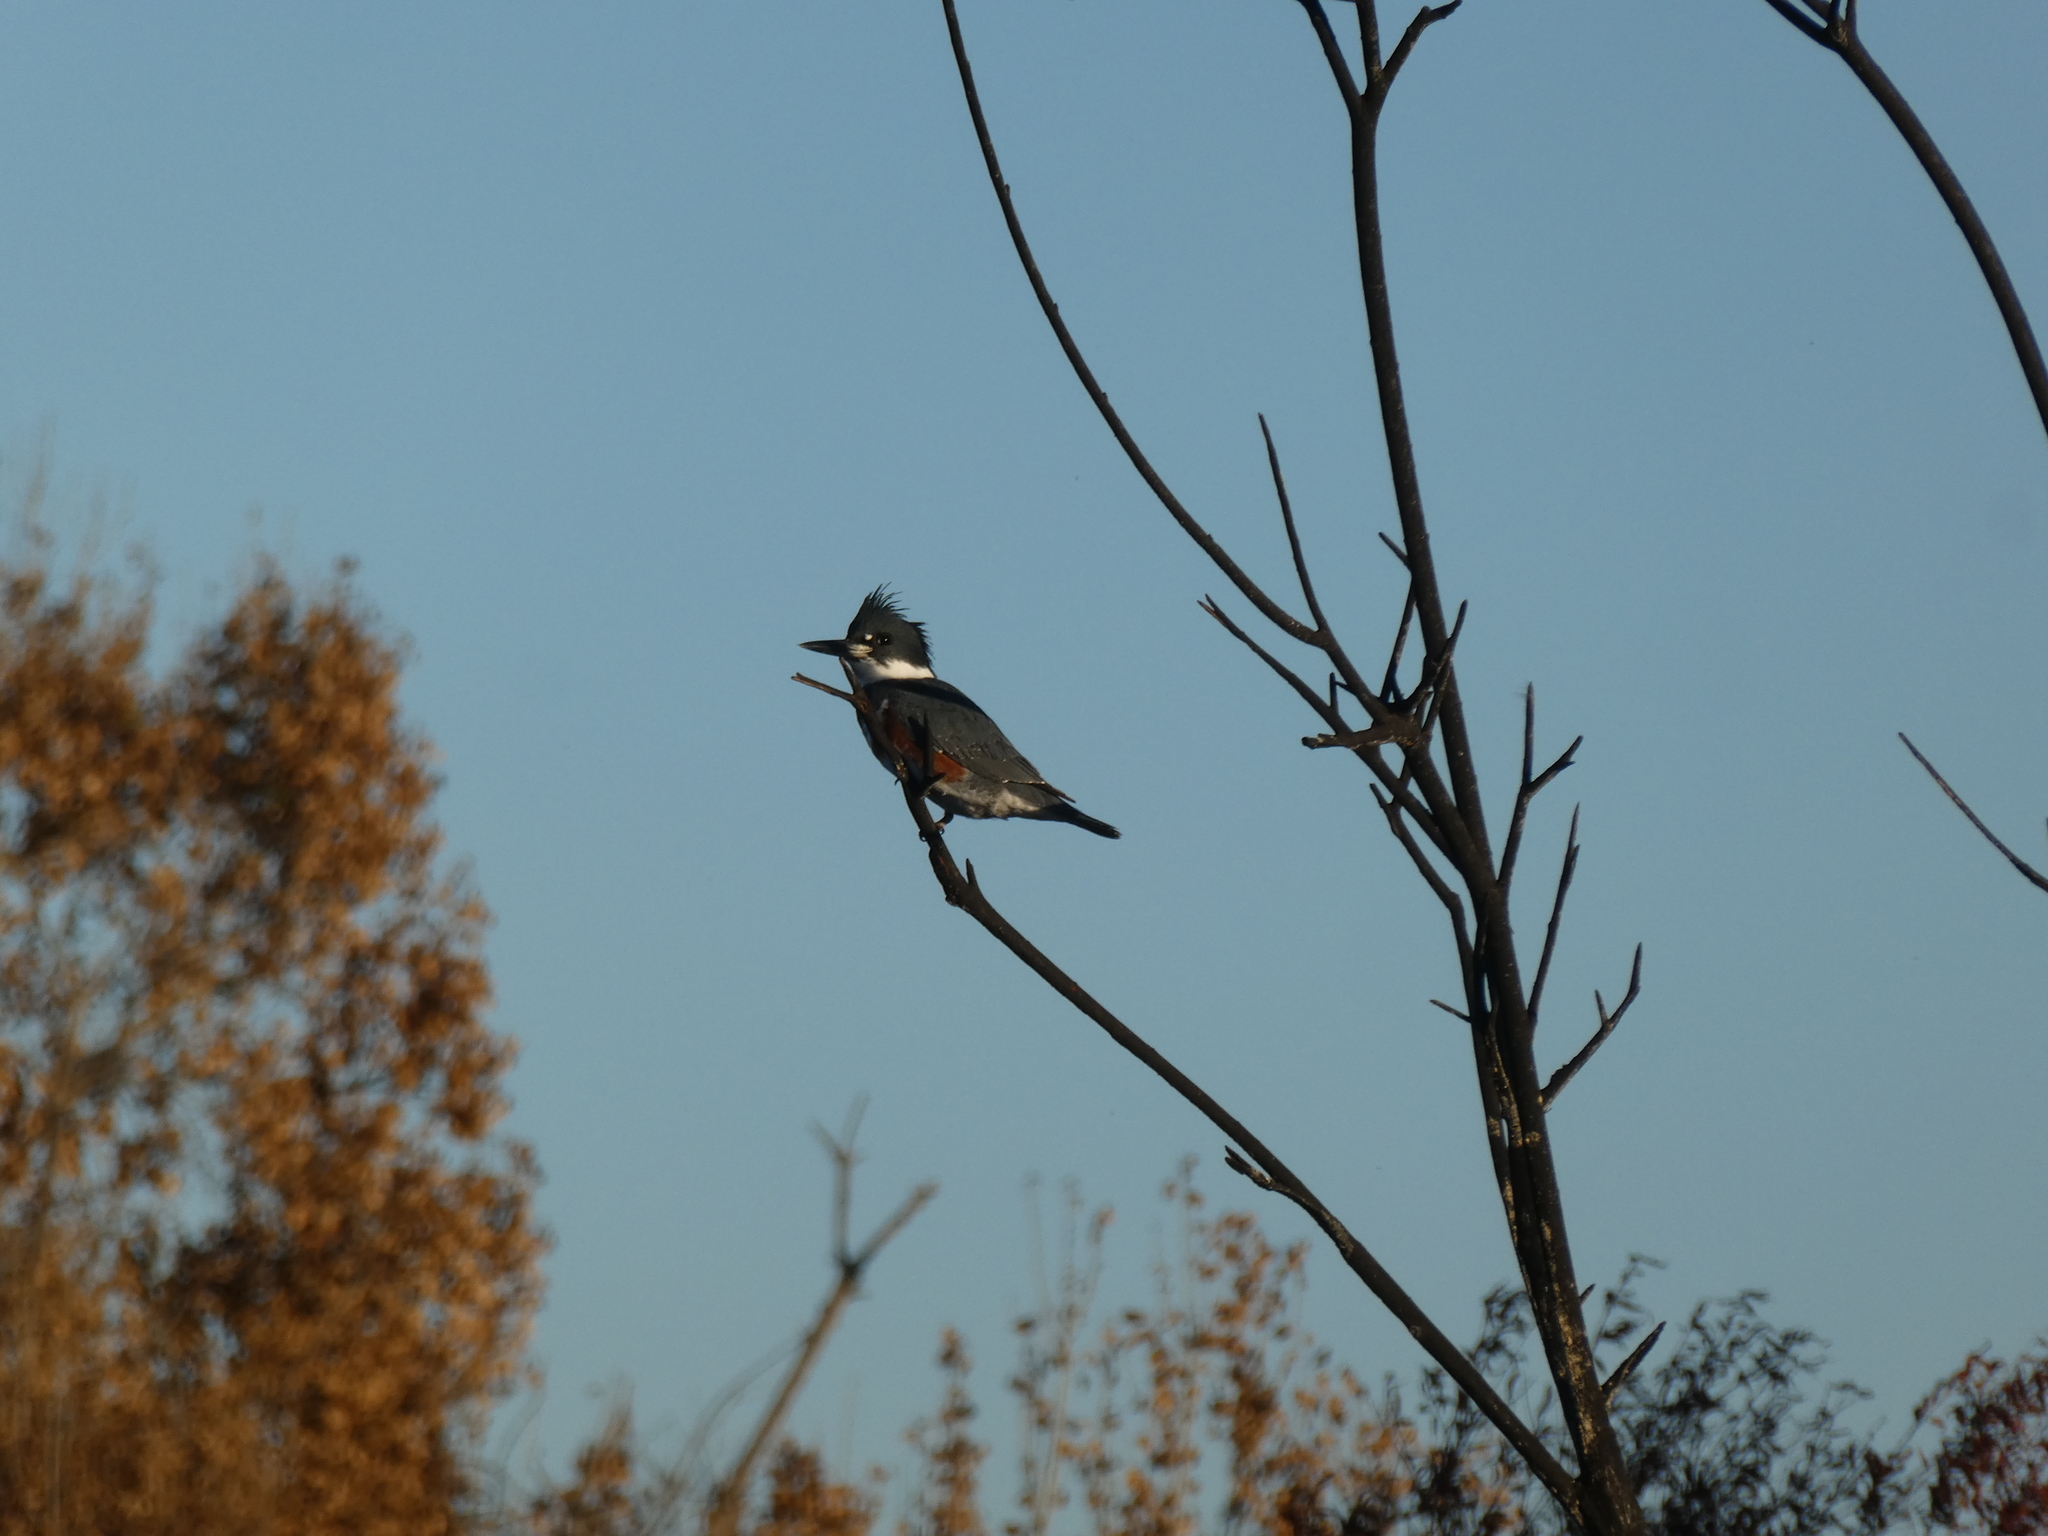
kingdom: Animalia
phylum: Chordata
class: Aves
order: Coraciiformes
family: Alcedinidae
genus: Megaceryle
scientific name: Megaceryle alcyon
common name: Belted kingfisher
